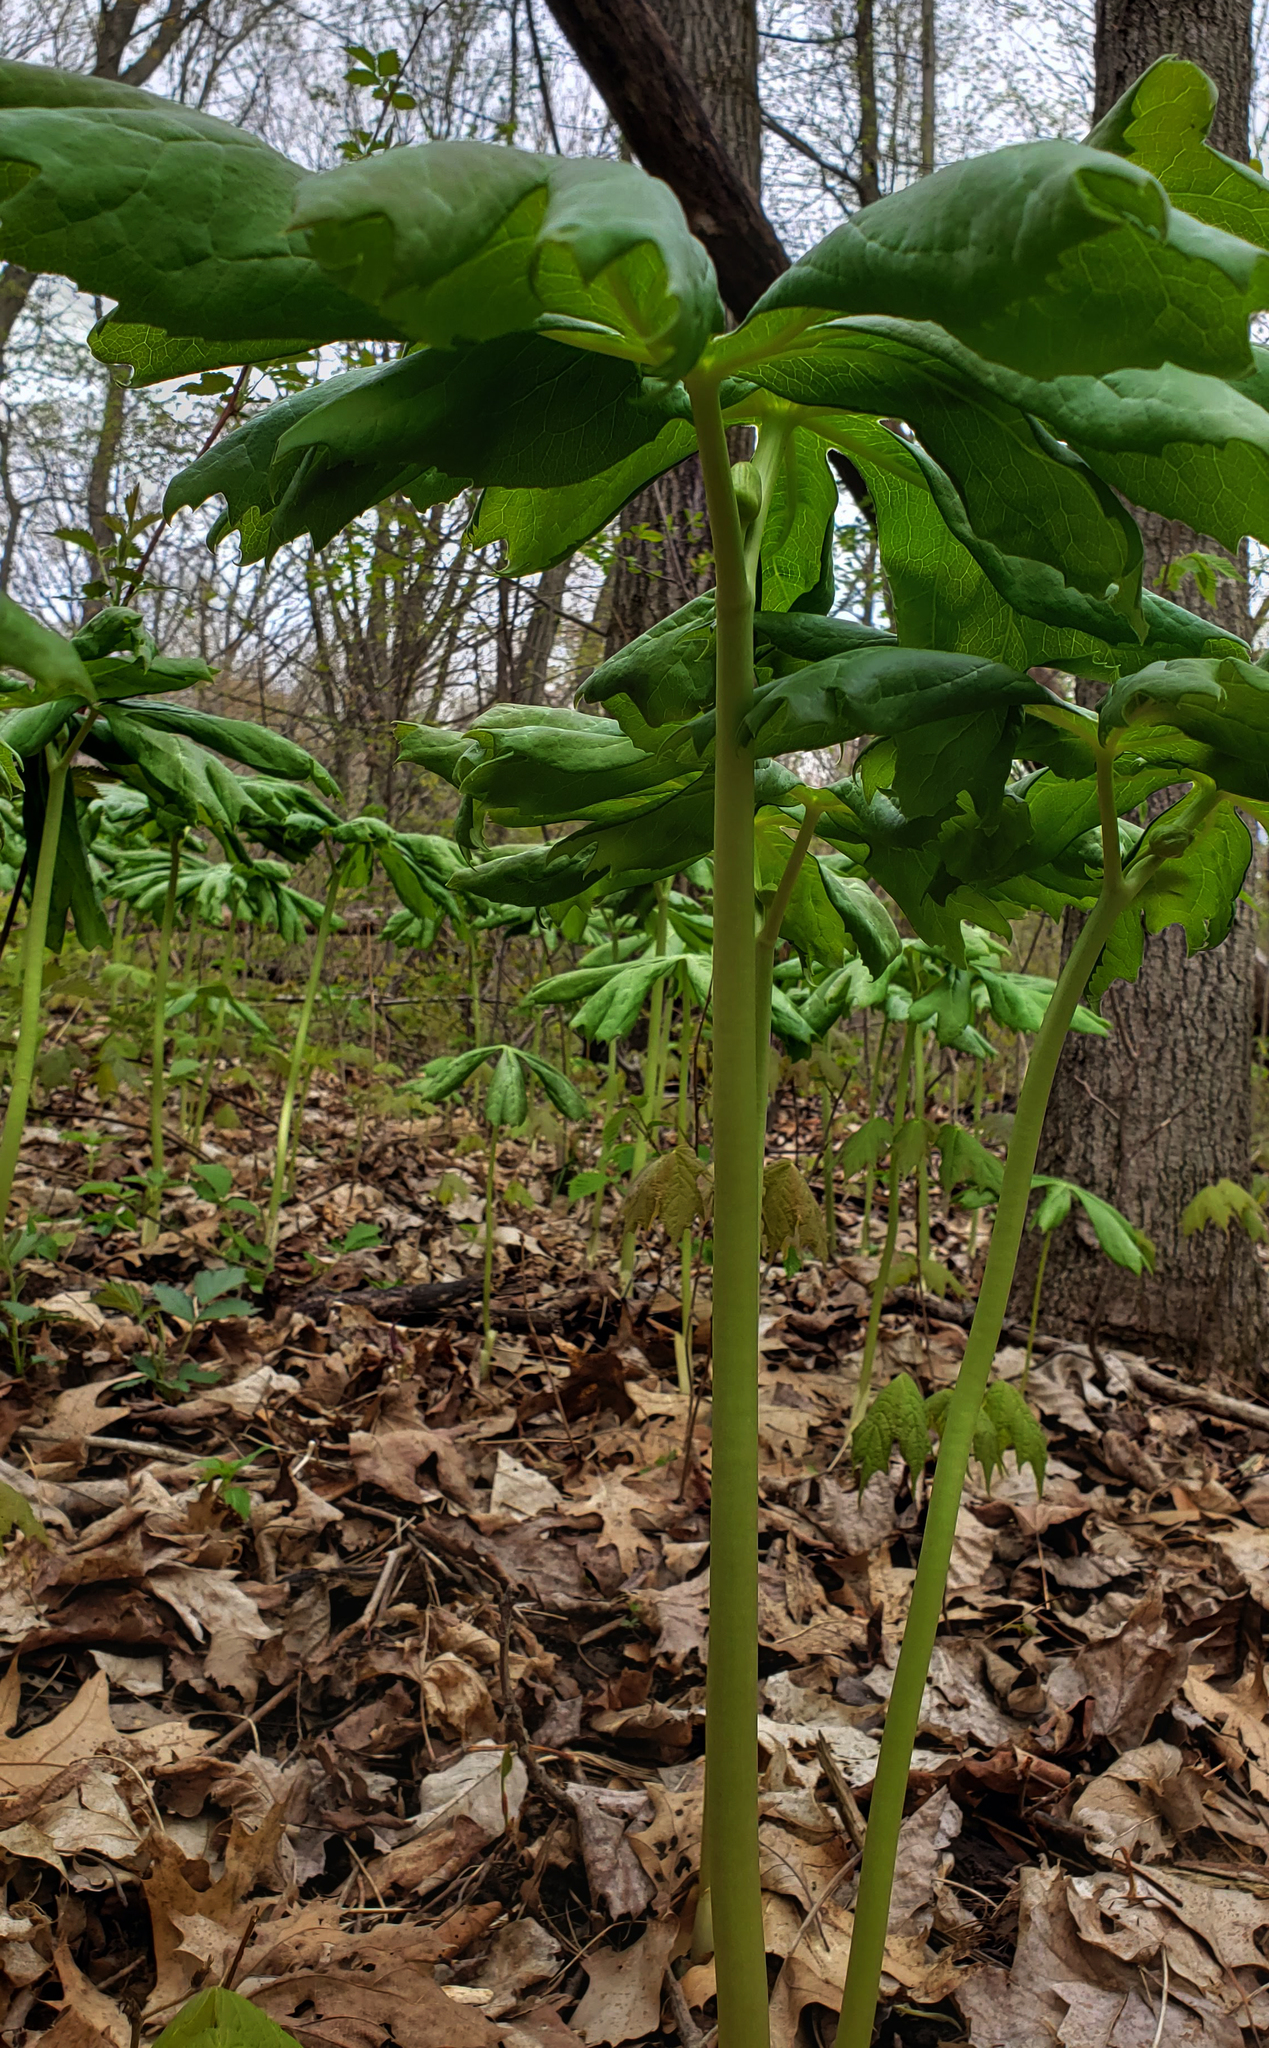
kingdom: Plantae
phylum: Tracheophyta
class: Magnoliopsida
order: Ranunculales
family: Berberidaceae
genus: Podophyllum
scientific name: Podophyllum peltatum
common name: Wild mandrake
